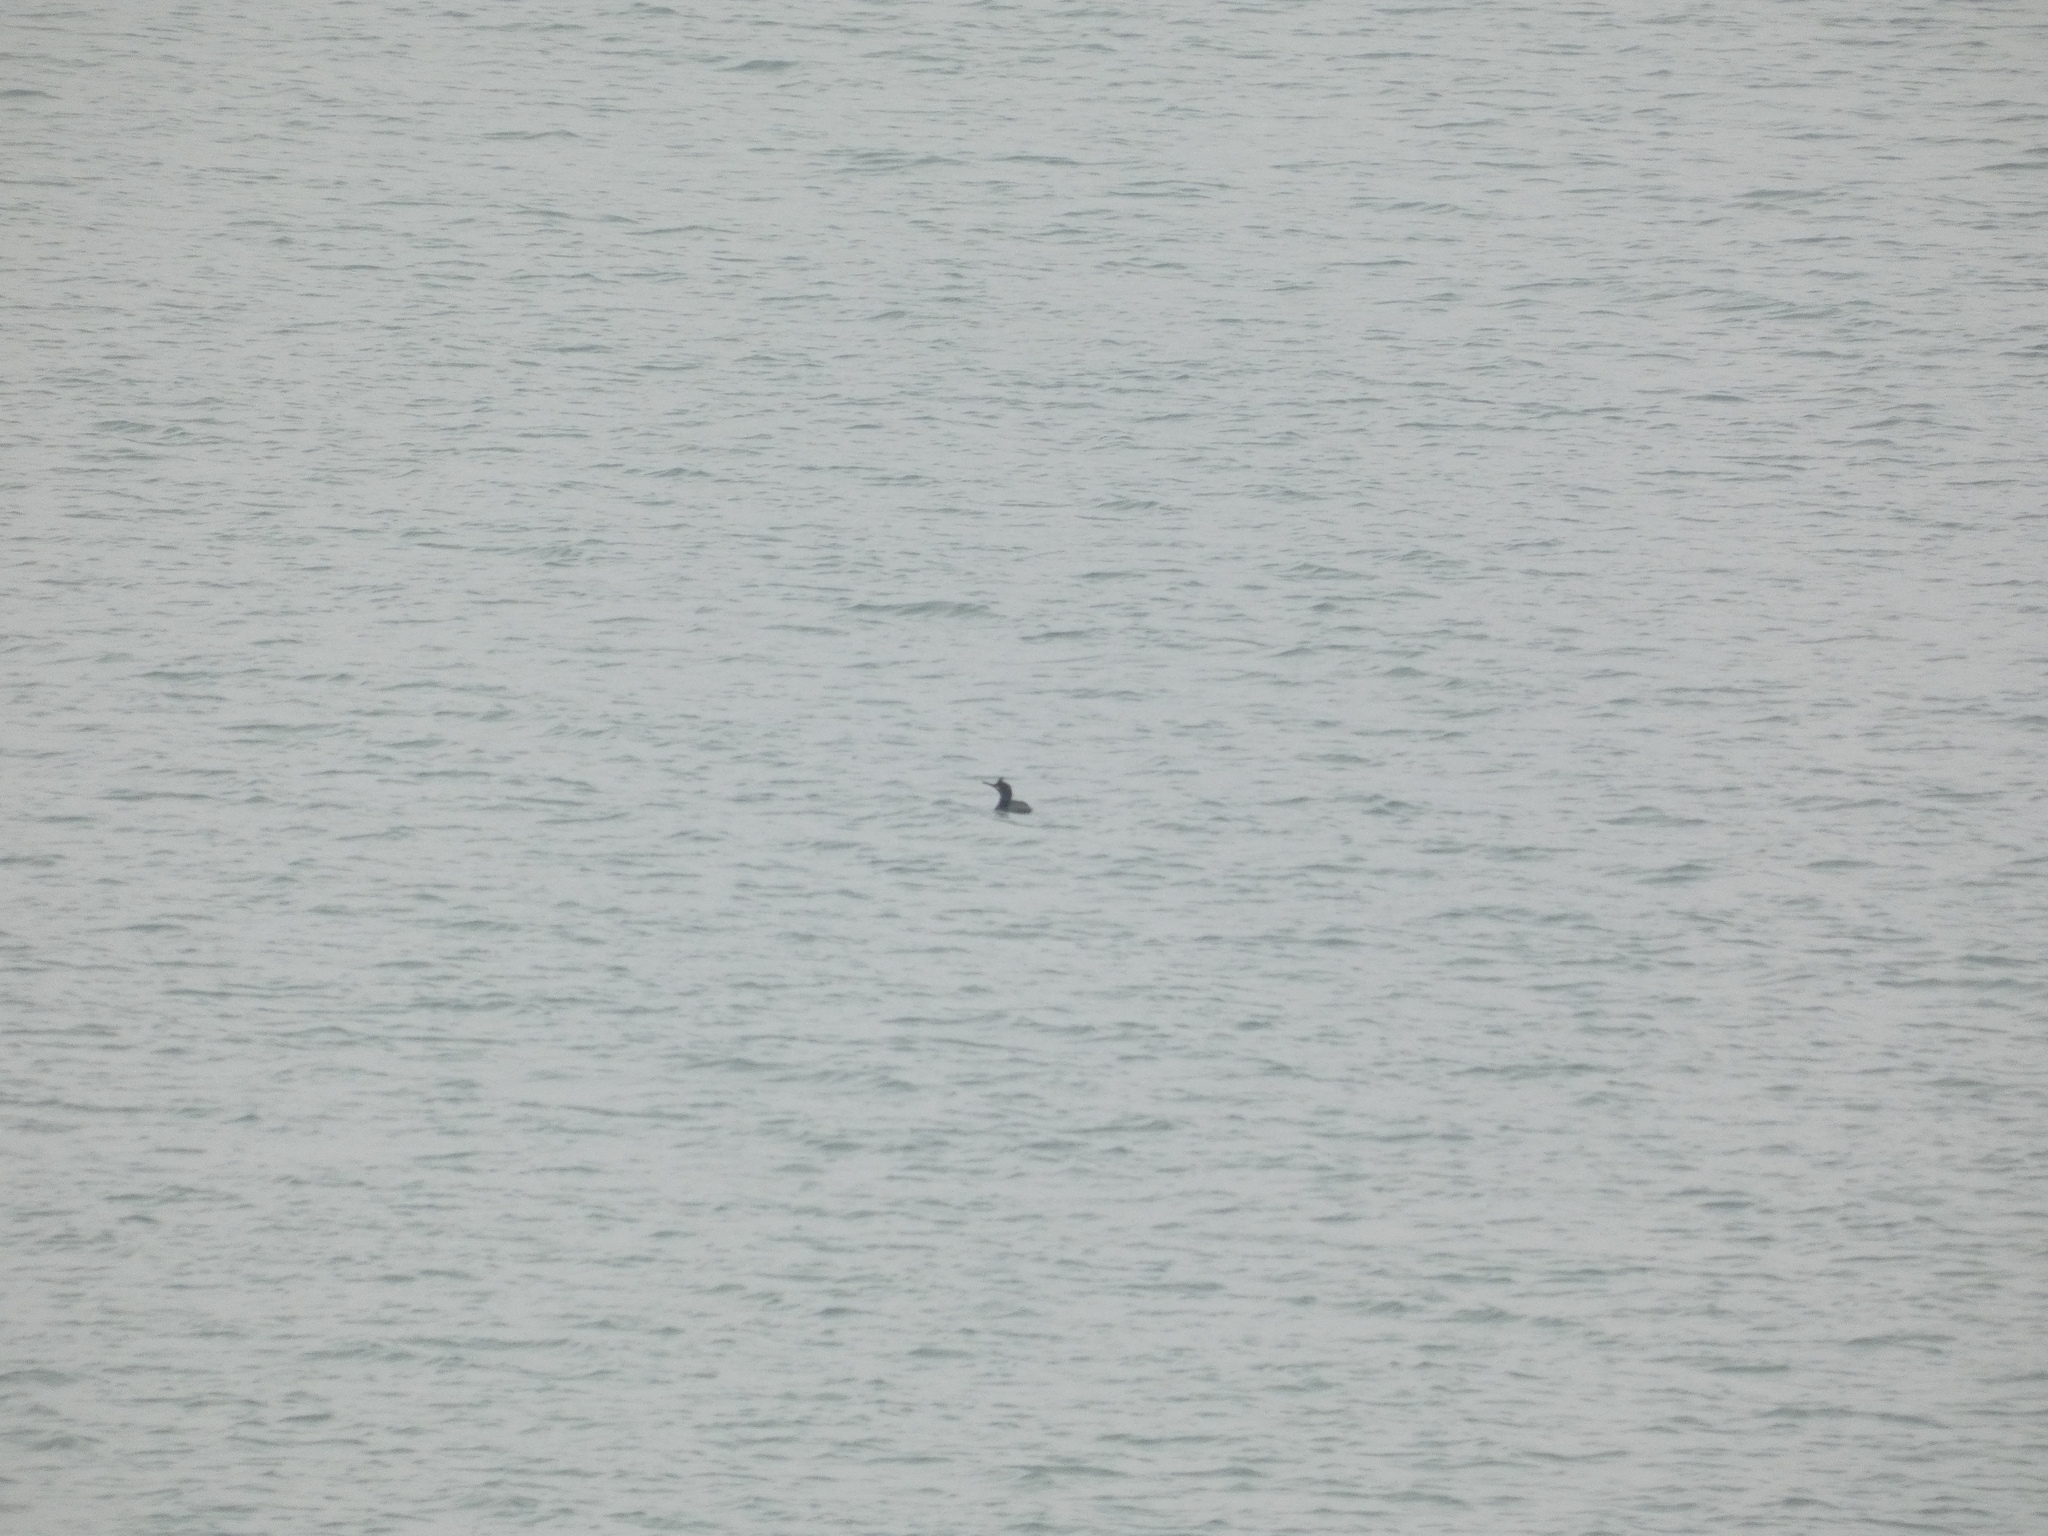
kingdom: Animalia
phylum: Chordata
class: Aves
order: Suliformes
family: Phalacrocoracidae
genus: Phalacrocorax
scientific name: Phalacrocorax aristotelis
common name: European shag
